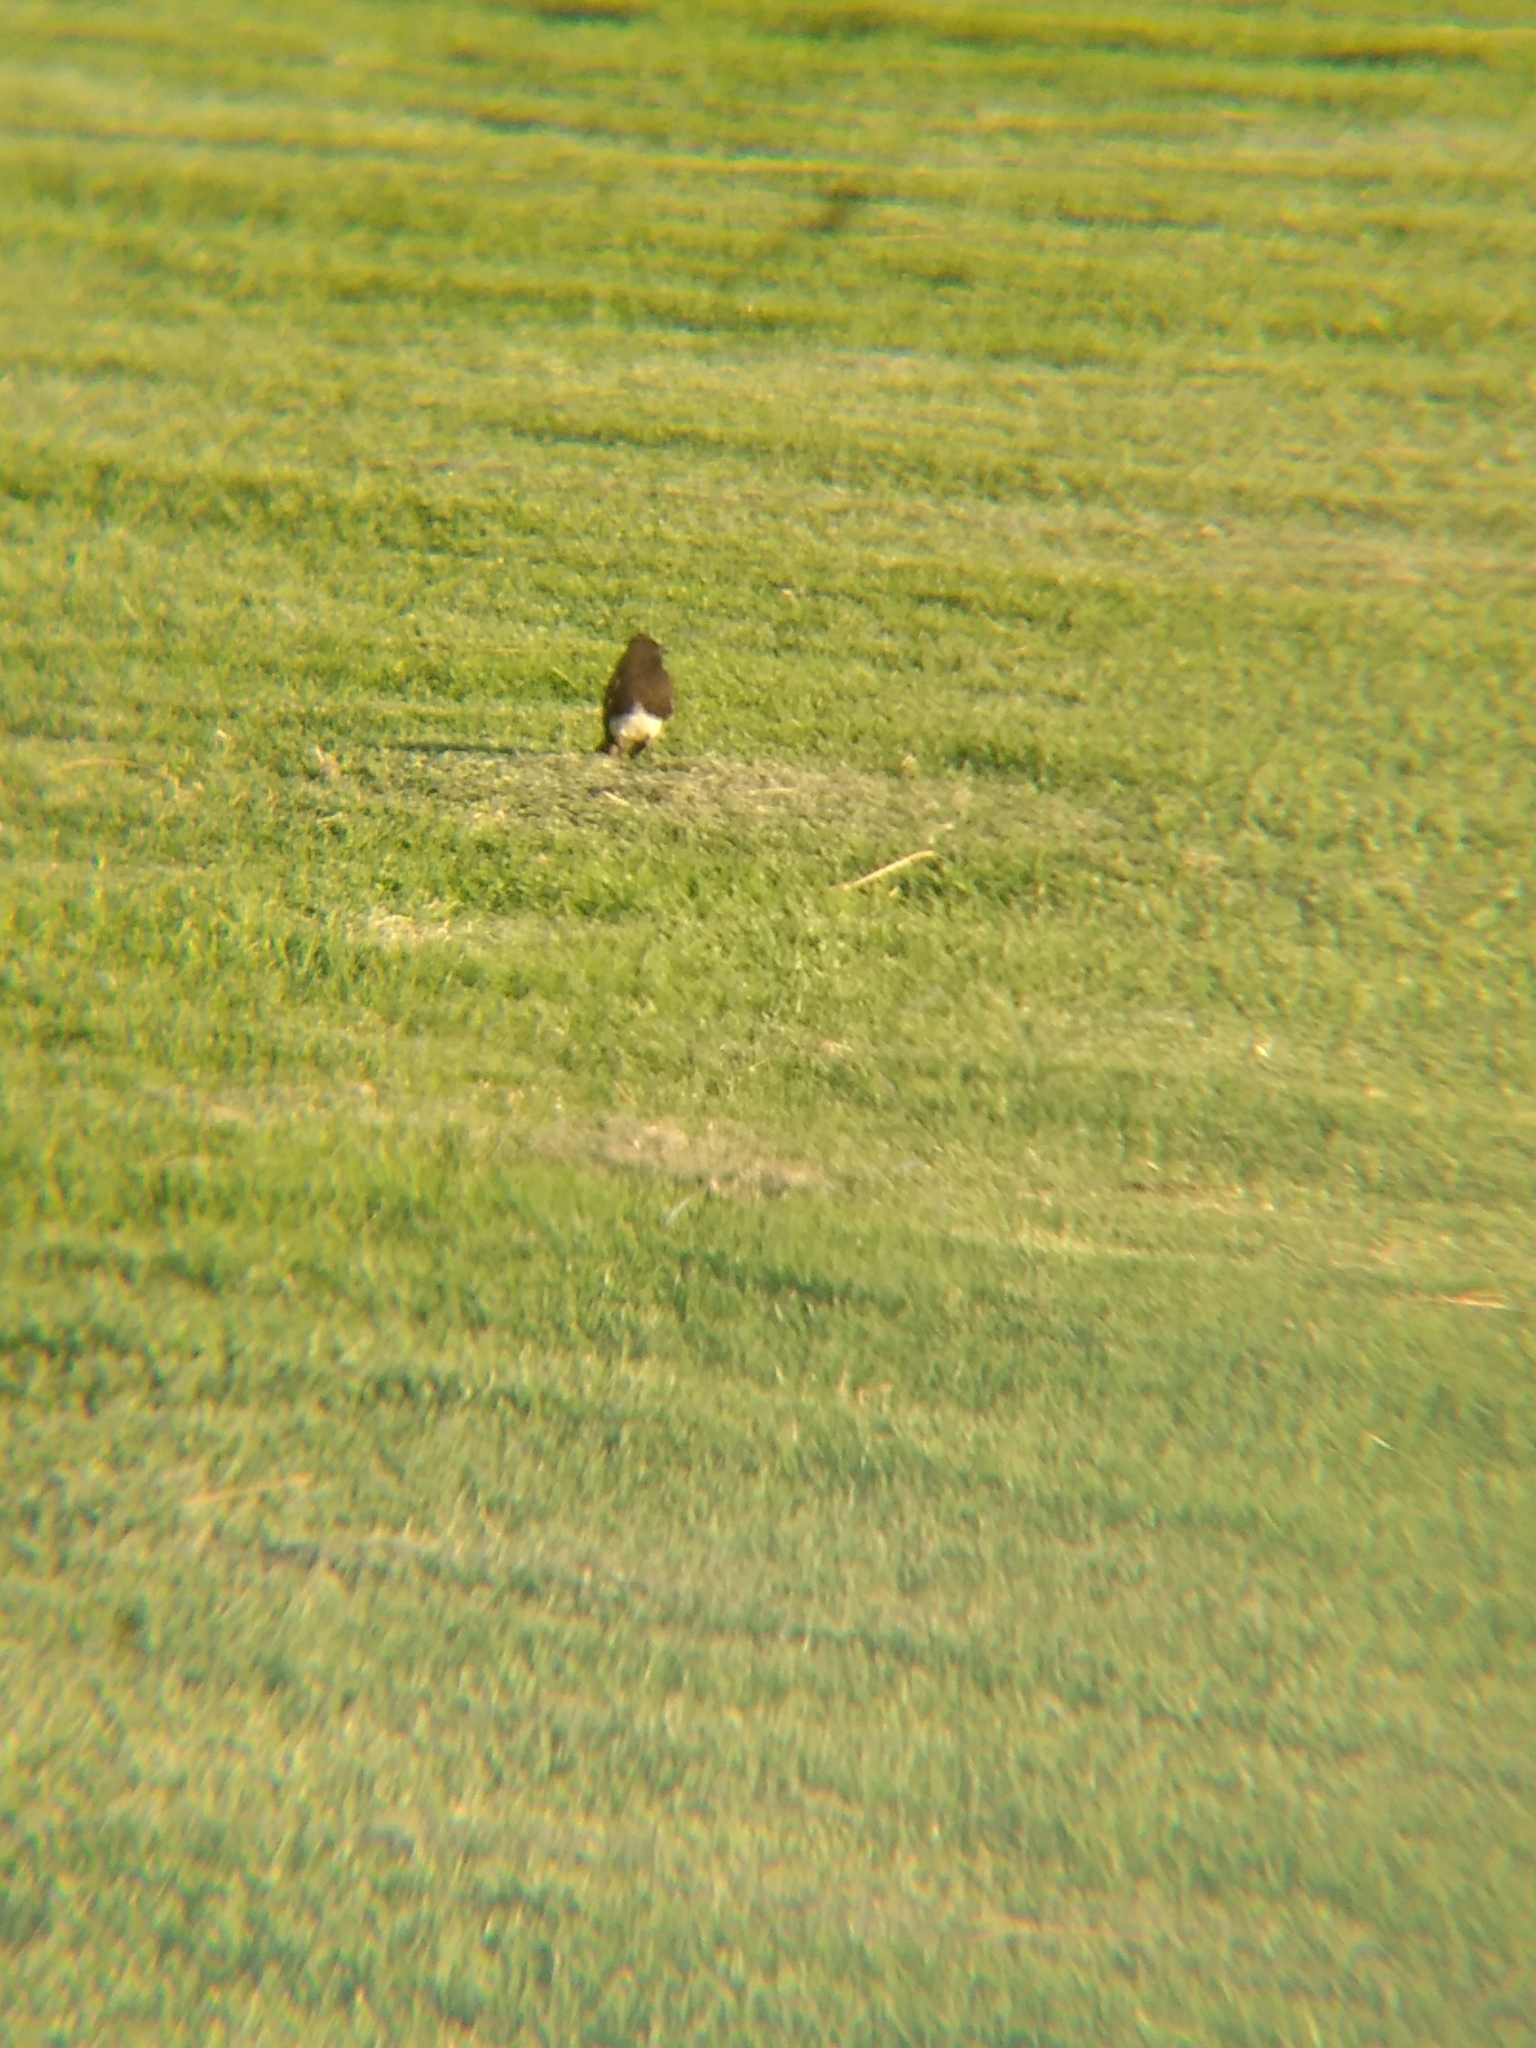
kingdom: Animalia
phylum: Chordata
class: Aves
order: Passeriformes
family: Tyrannidae
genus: Sayornis
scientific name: Sayornis nigricans
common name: Black phoebe
